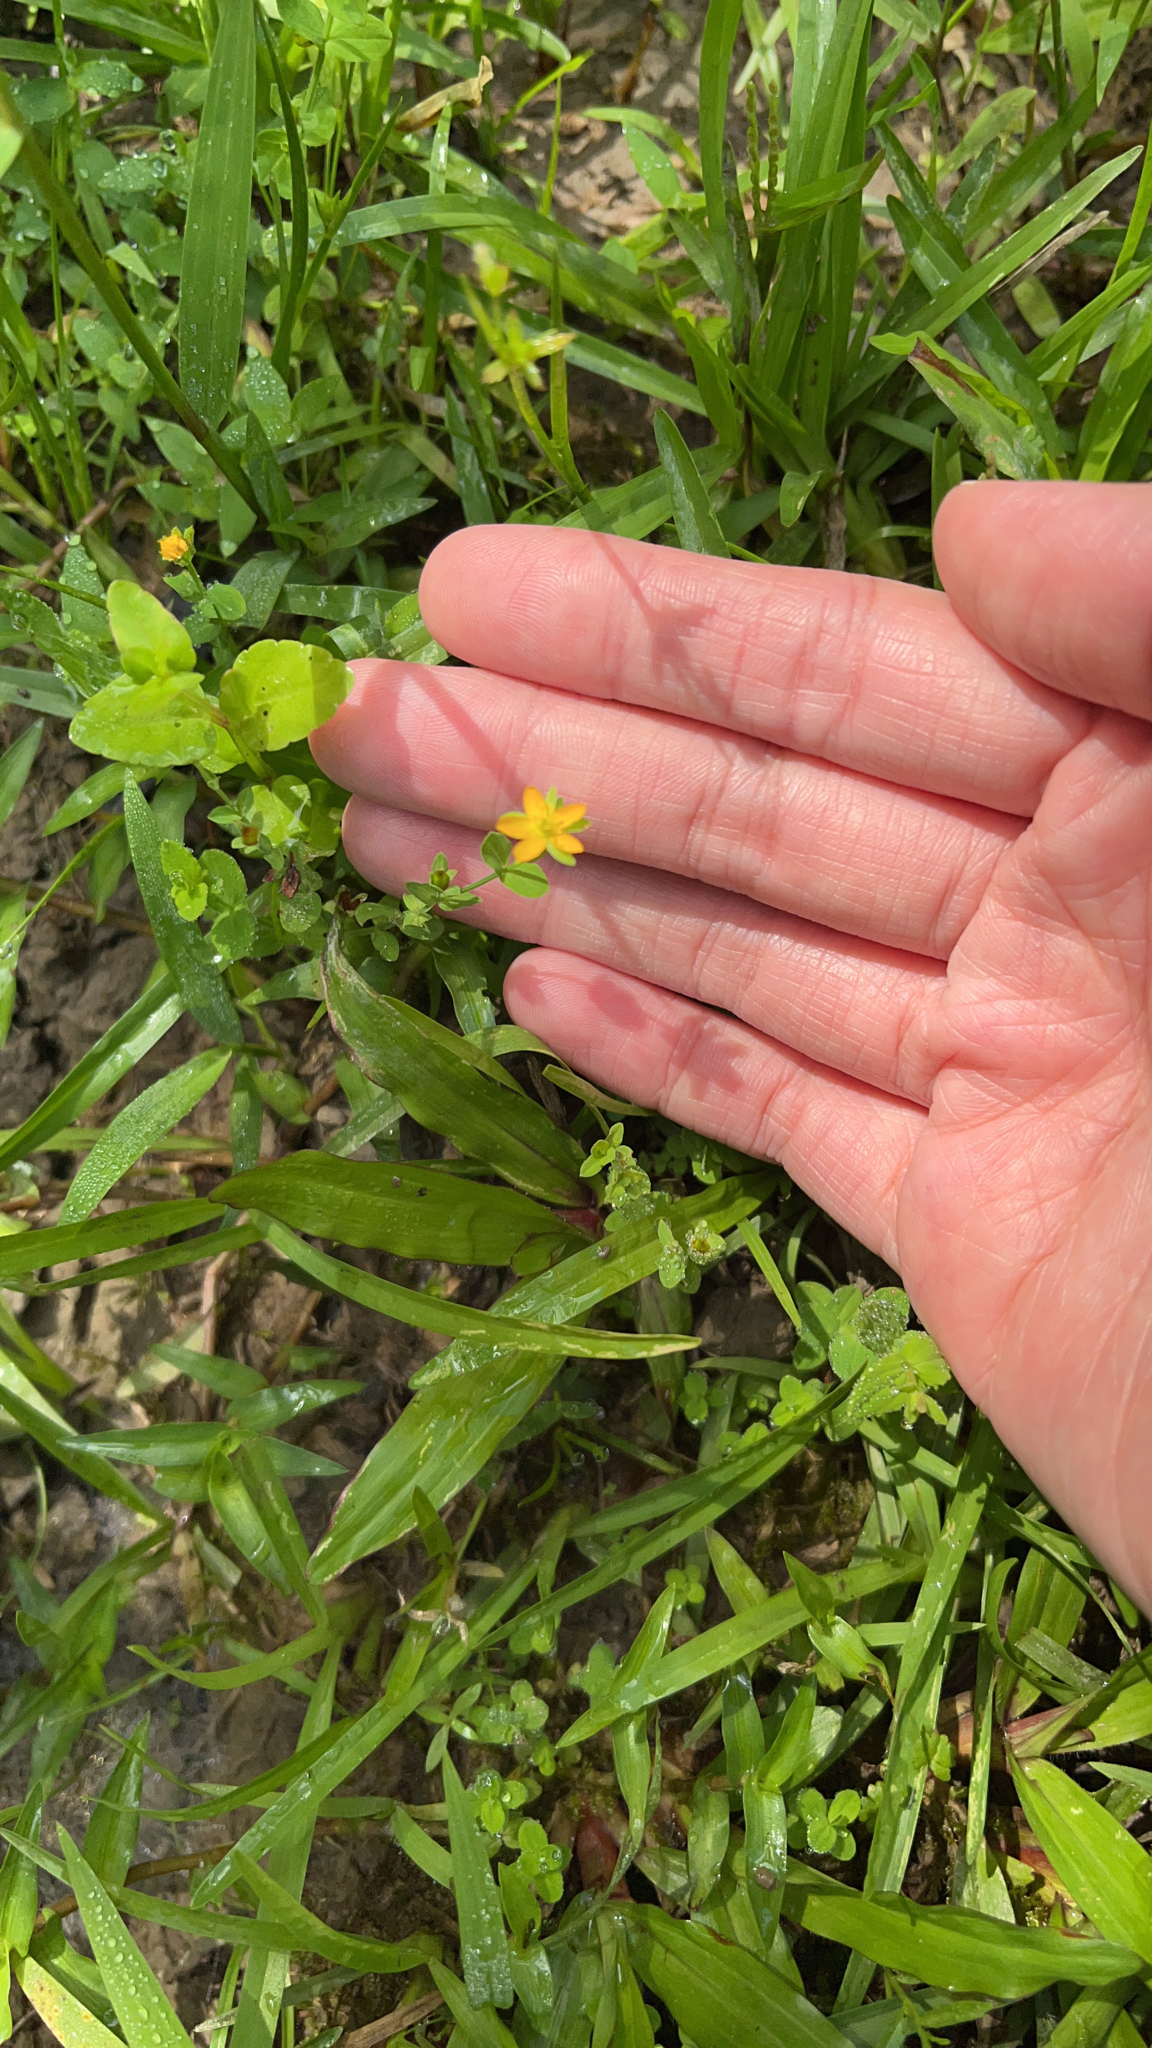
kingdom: Plantae
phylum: Tracheophyta
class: Magnoliopsida
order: Malpighiales
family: Hypericaceae
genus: Hypericum
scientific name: Hypericum japonicum
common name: Matted st. john's-wort
